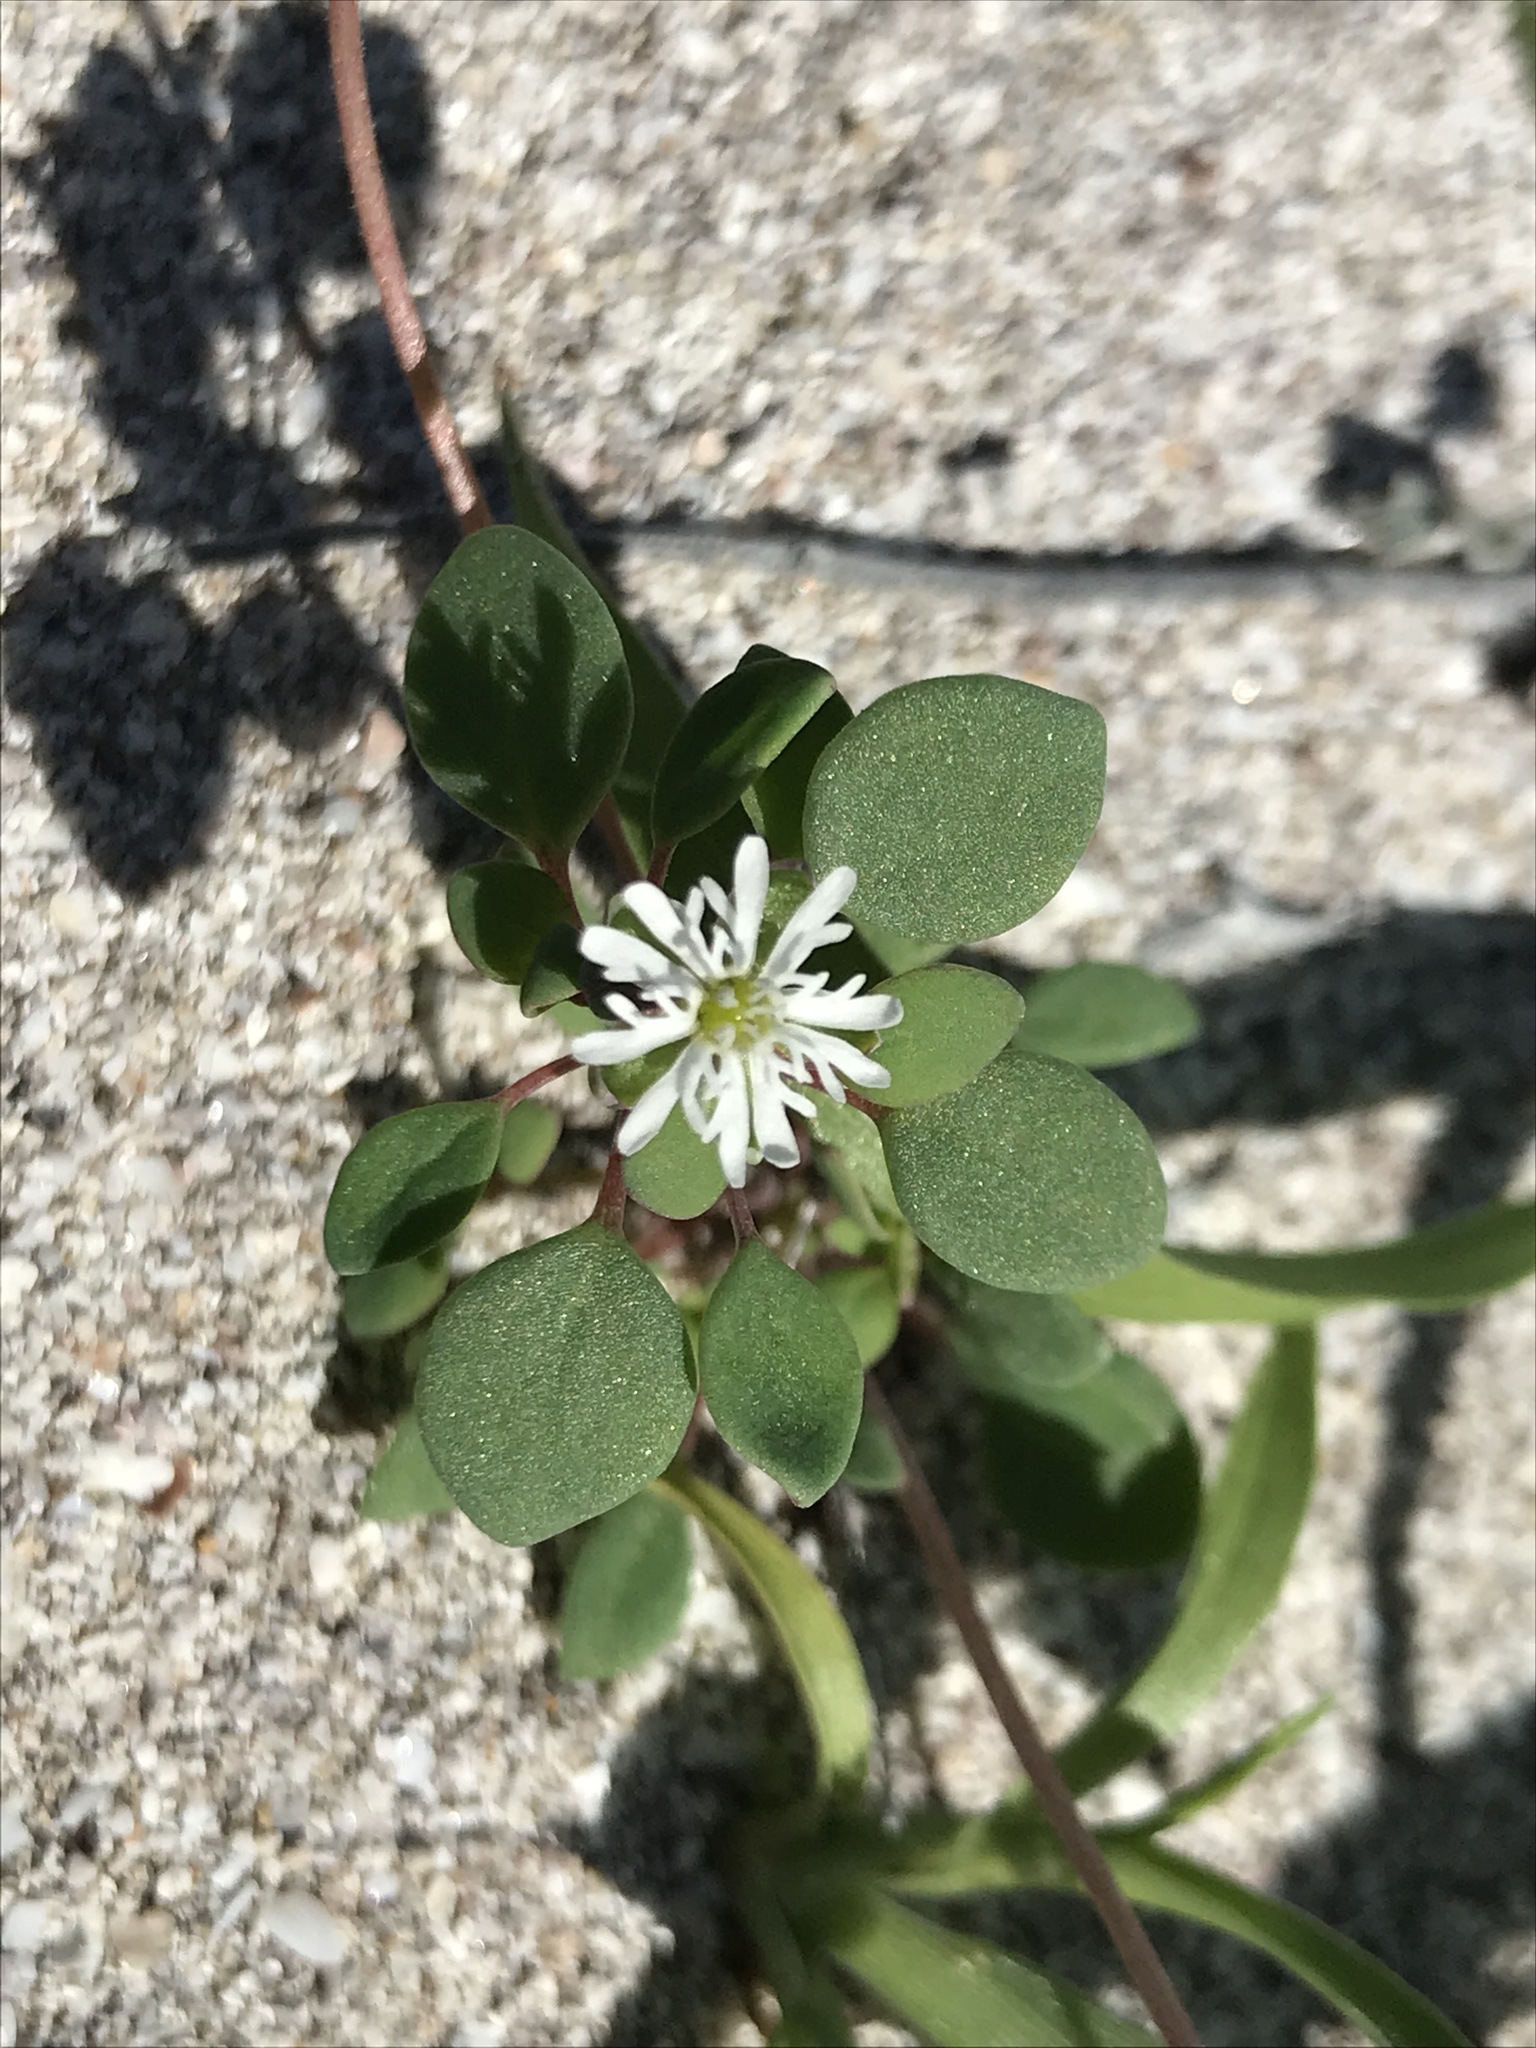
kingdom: Plantae
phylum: Tracheophyta
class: Magnoliopsida
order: Caryophyllales
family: Caryophyllaceae
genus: Drymaria
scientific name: Drymaria holosteoides
